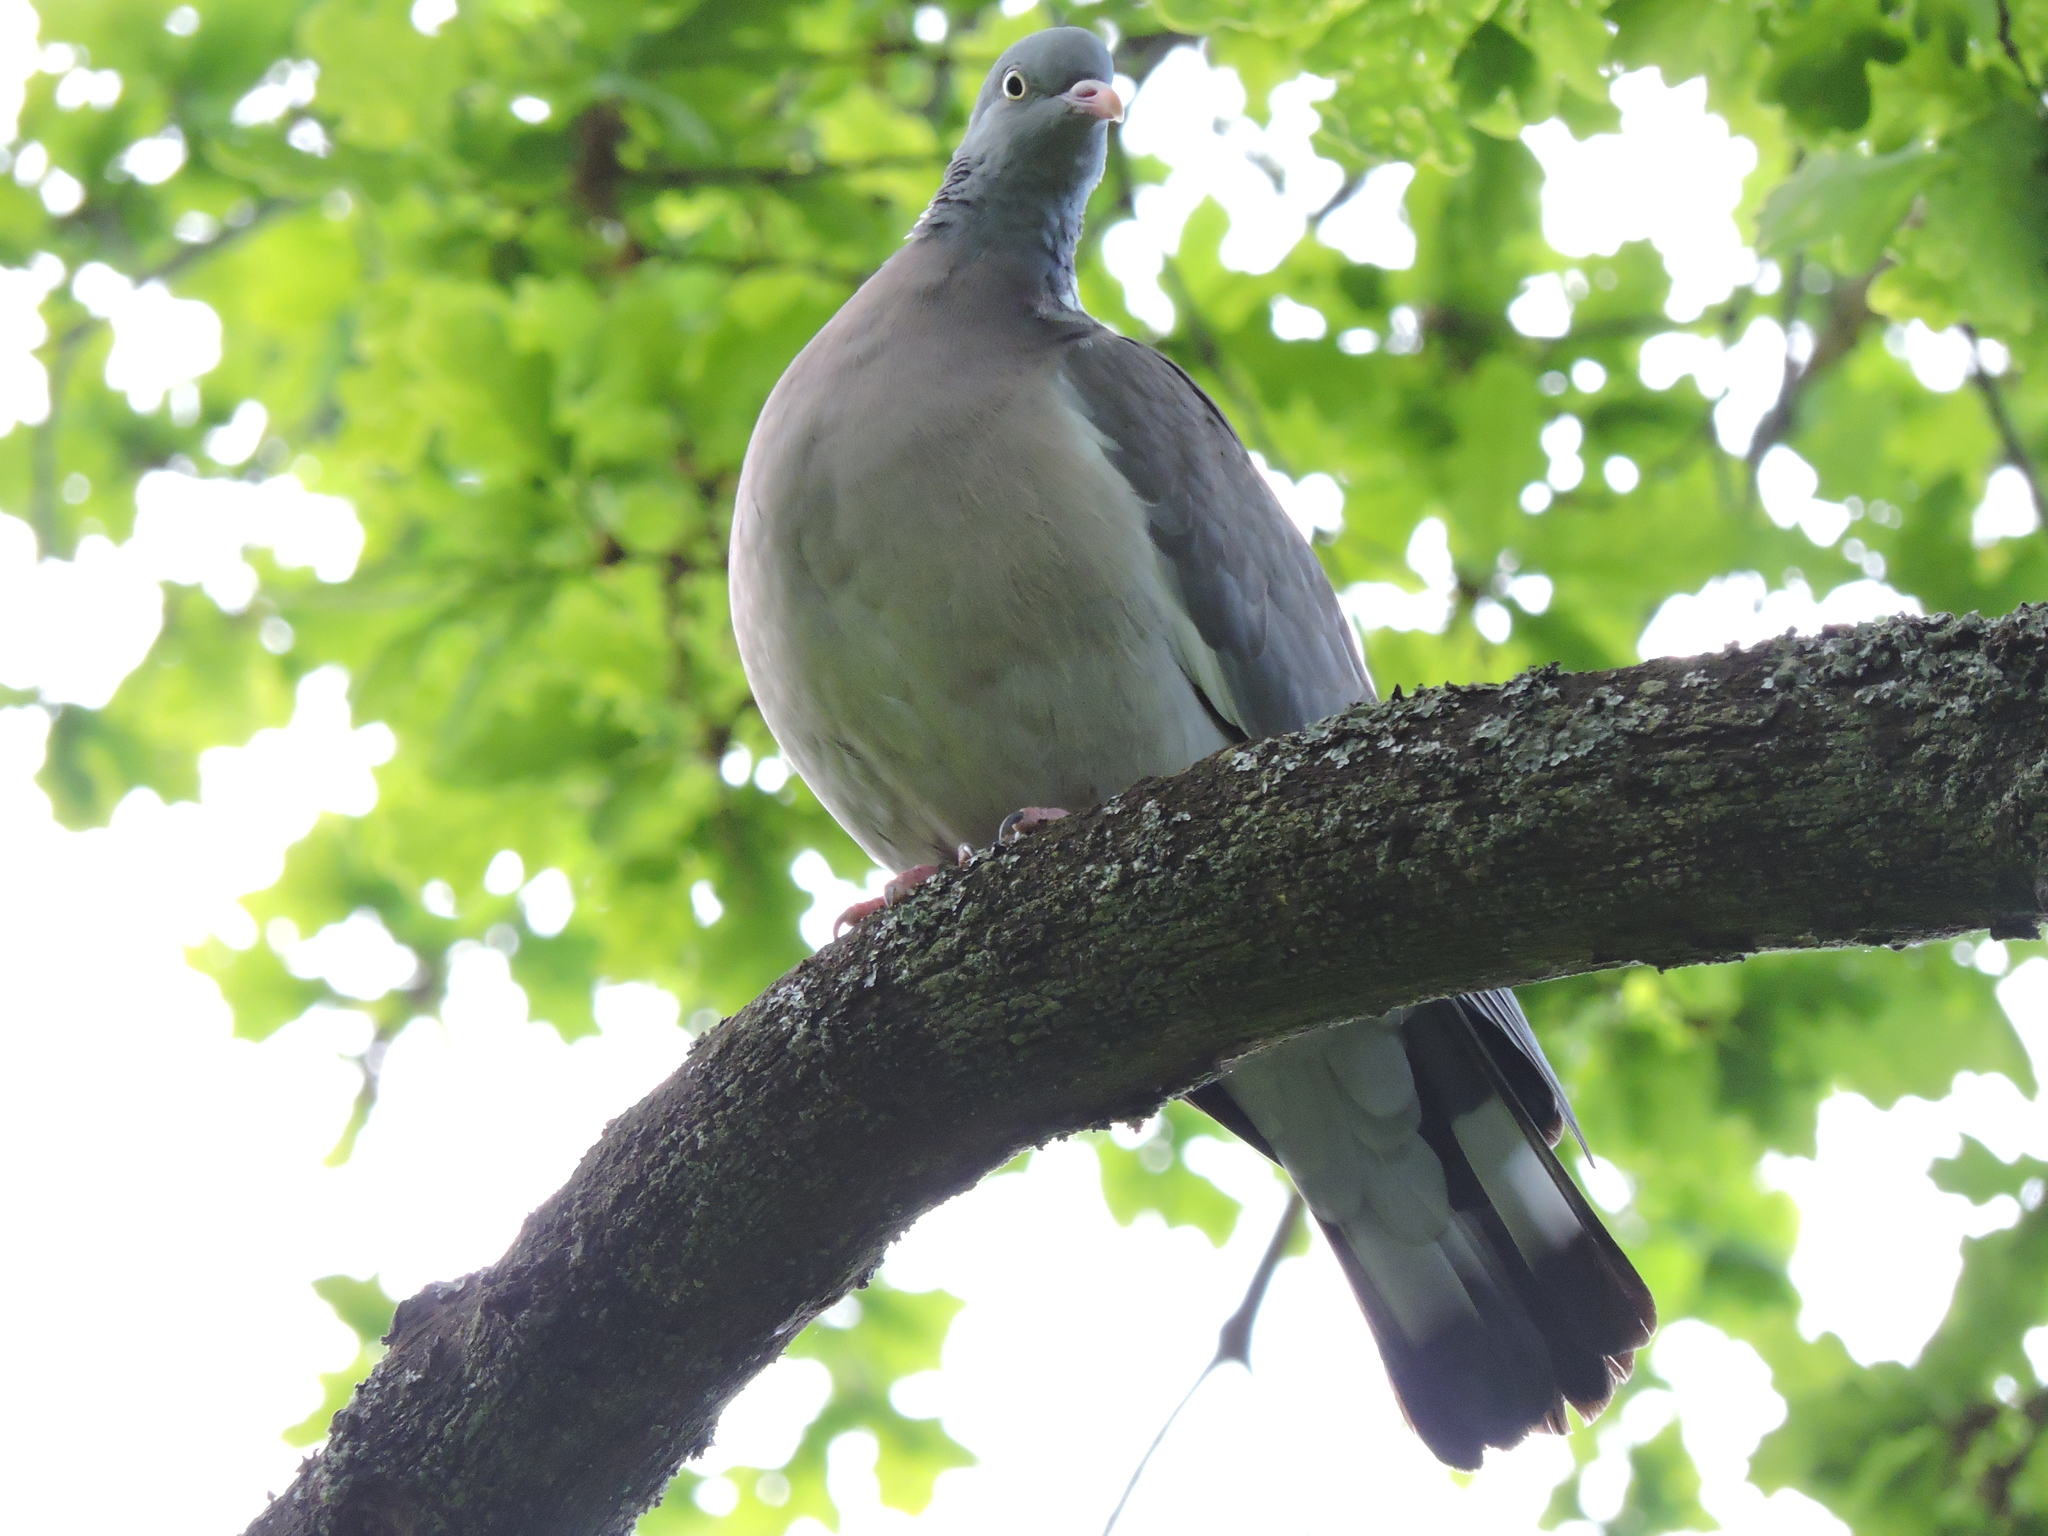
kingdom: Animalia
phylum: Chordata
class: Aves
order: Columbiformes
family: Columbidae
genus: Columba
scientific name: Columba palumbus
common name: Common wood pigeon
